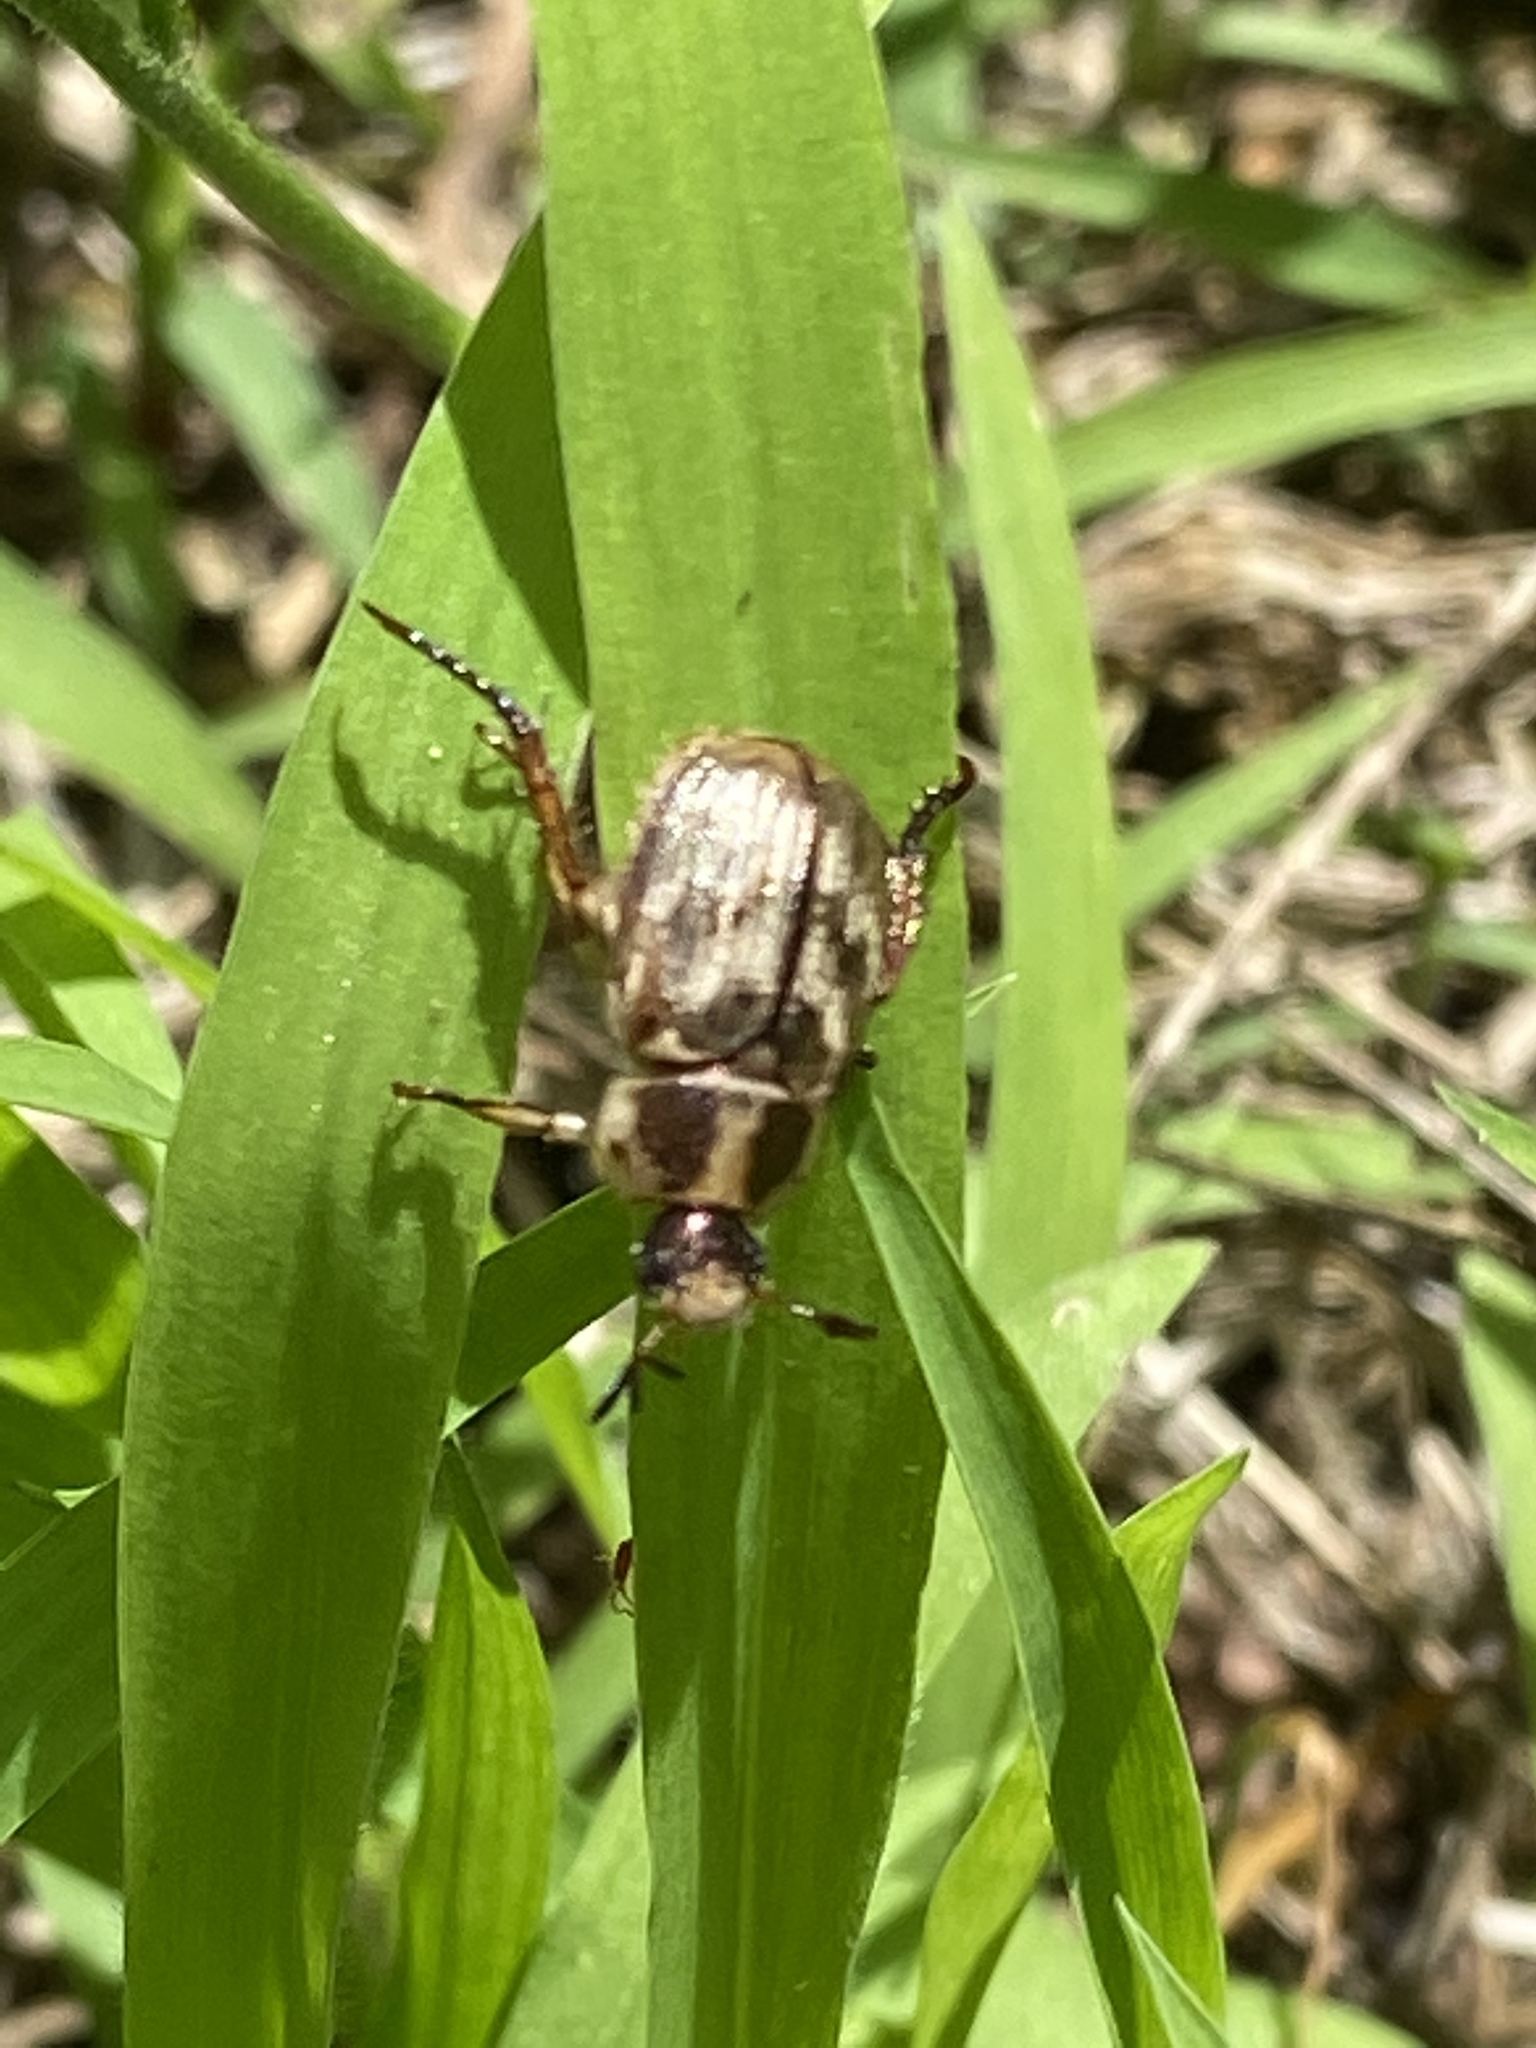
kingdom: Animalia
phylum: Arthropoda
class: Insecta
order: Coleoptera
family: Scarabaeidae
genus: Exomala
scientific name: Exomala orientalis
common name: Oriental beetle
